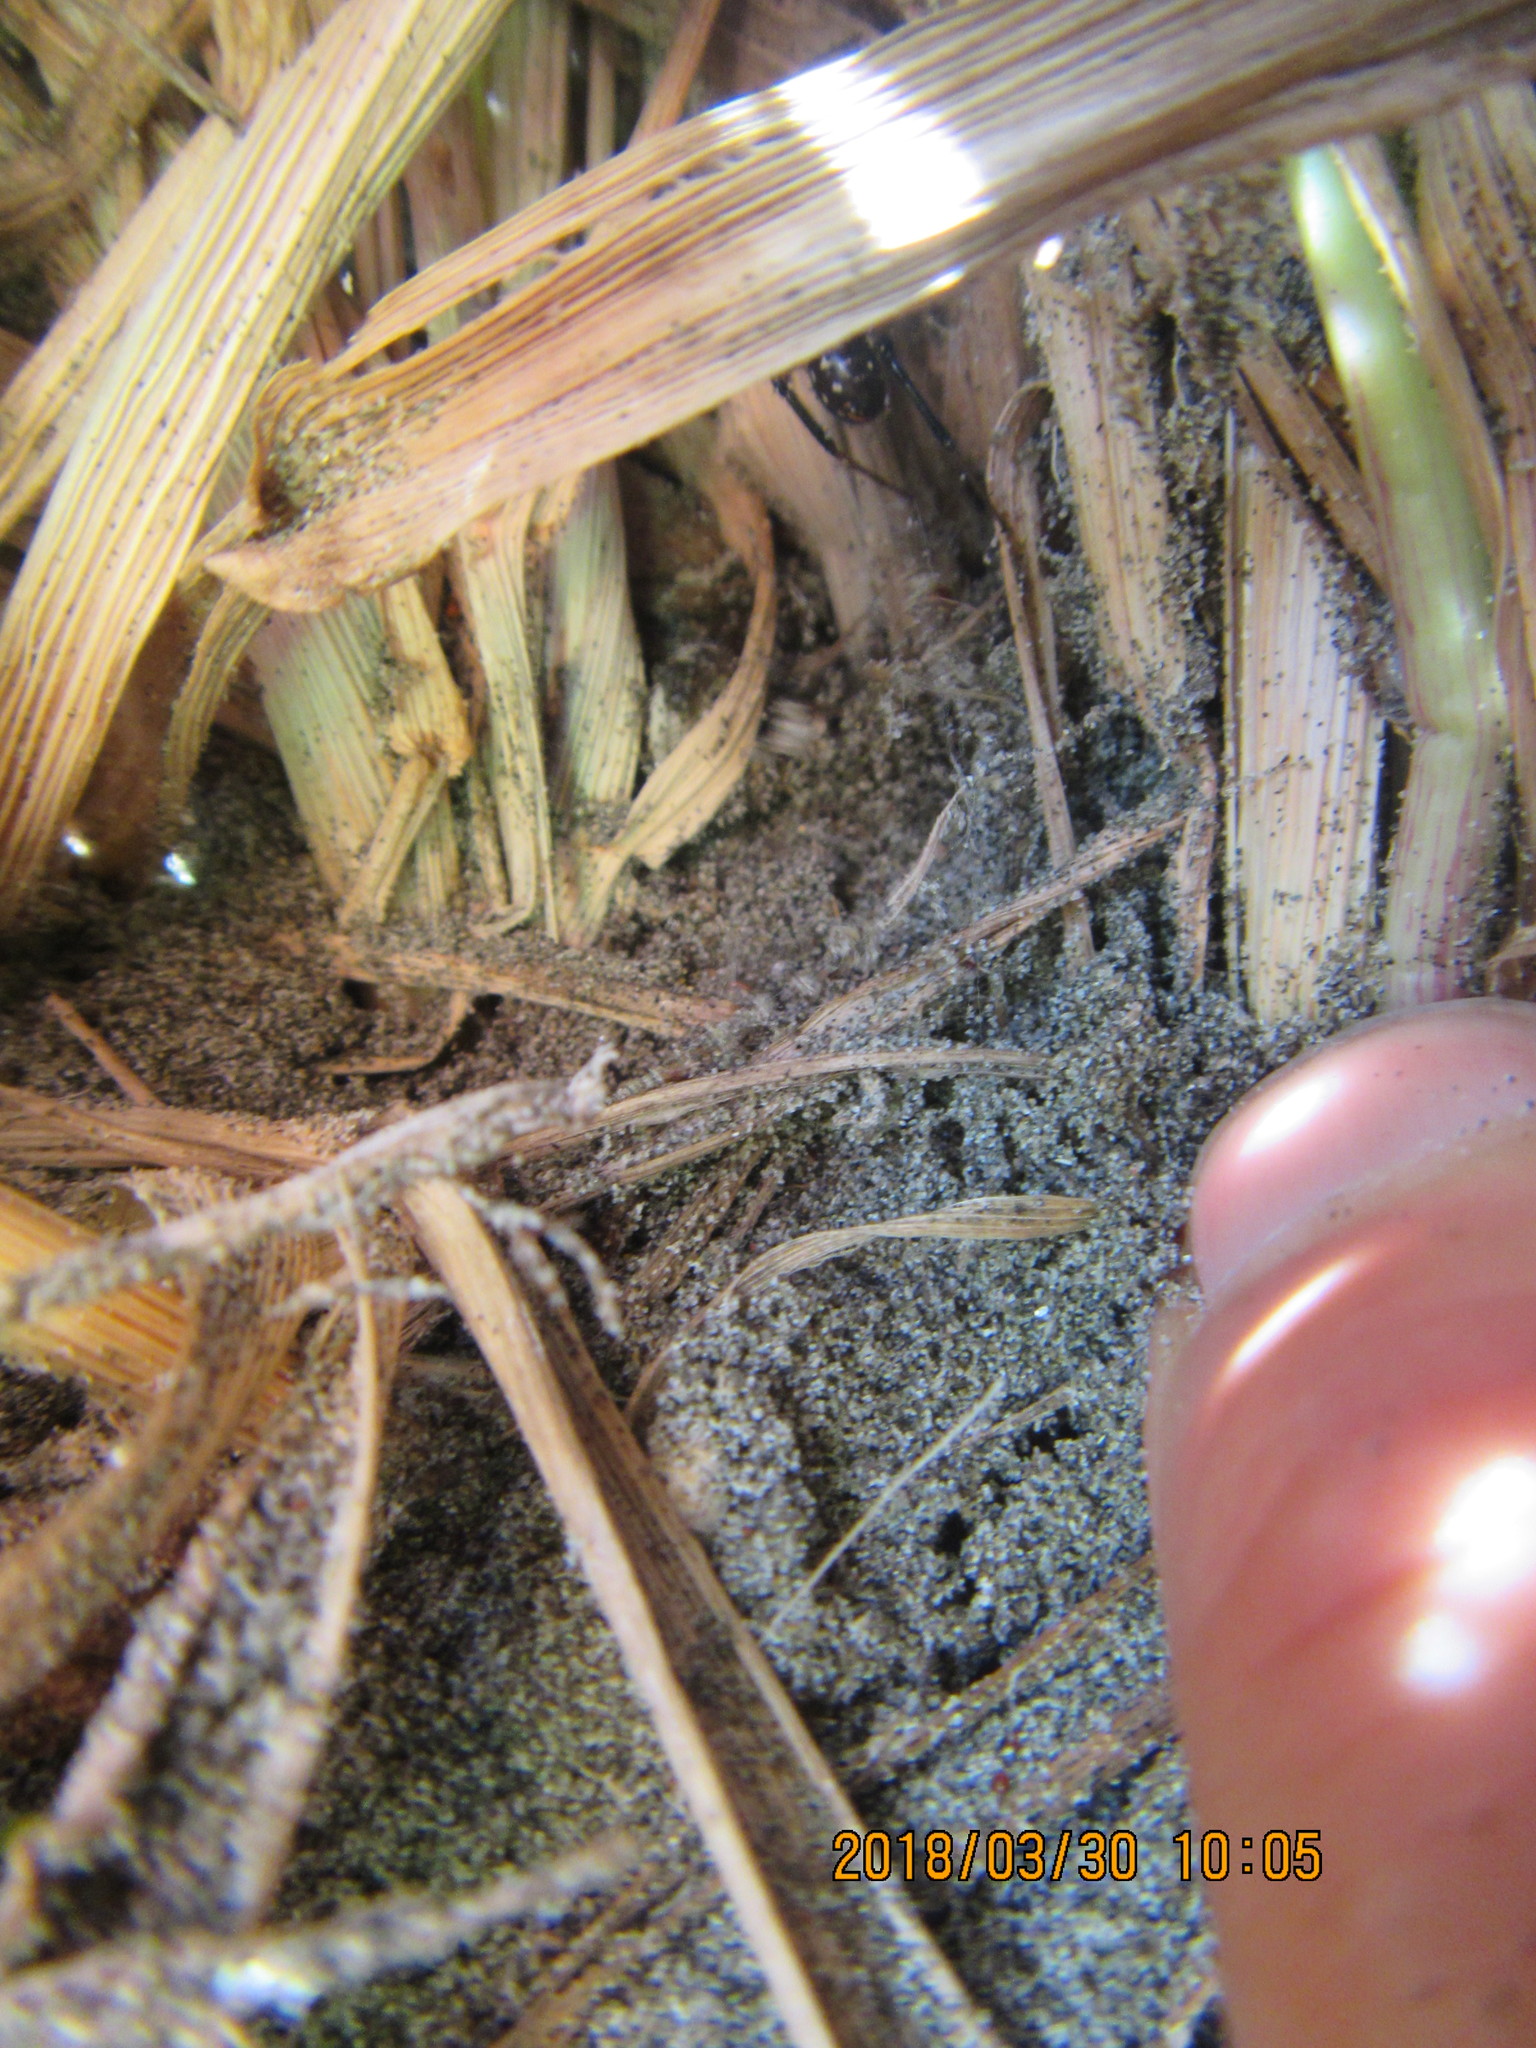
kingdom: Animalia
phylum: Arthropoda
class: Arachnida
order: Araneae
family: Theridiidae
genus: Steatoda
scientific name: Steatoda capensis
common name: Cobweb weaver
